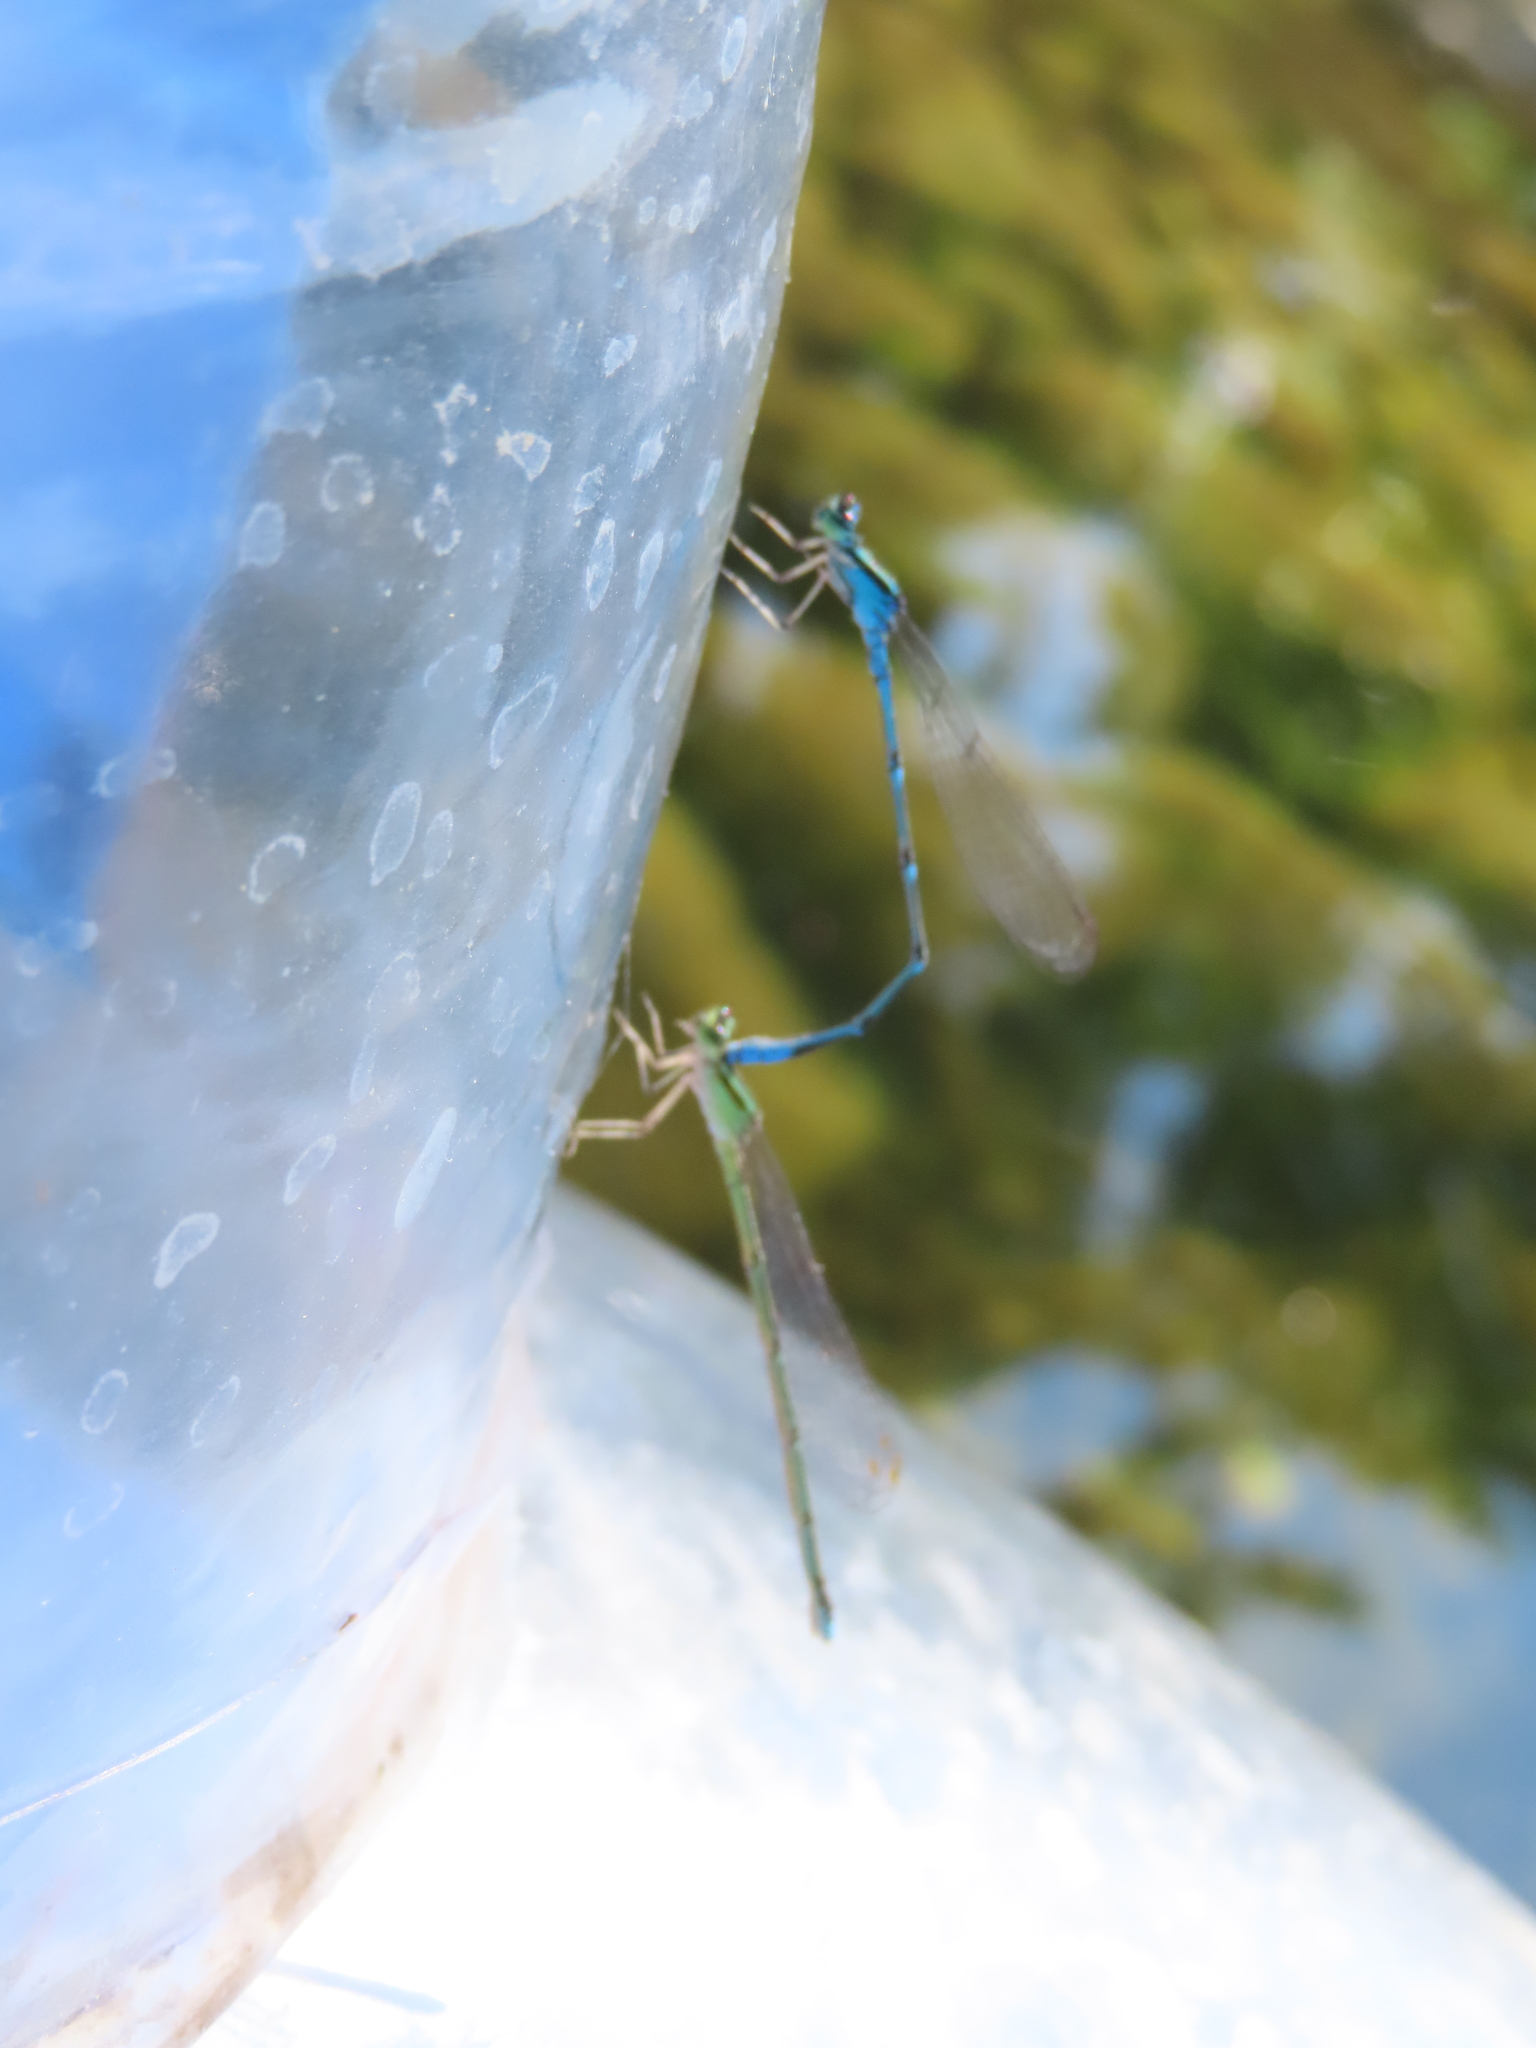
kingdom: Animalia
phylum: Arthropoda
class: Insecta
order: Odonata
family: Coenagrionidae
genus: Enallagma
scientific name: Enallagma exsulans
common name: Stream bluet
